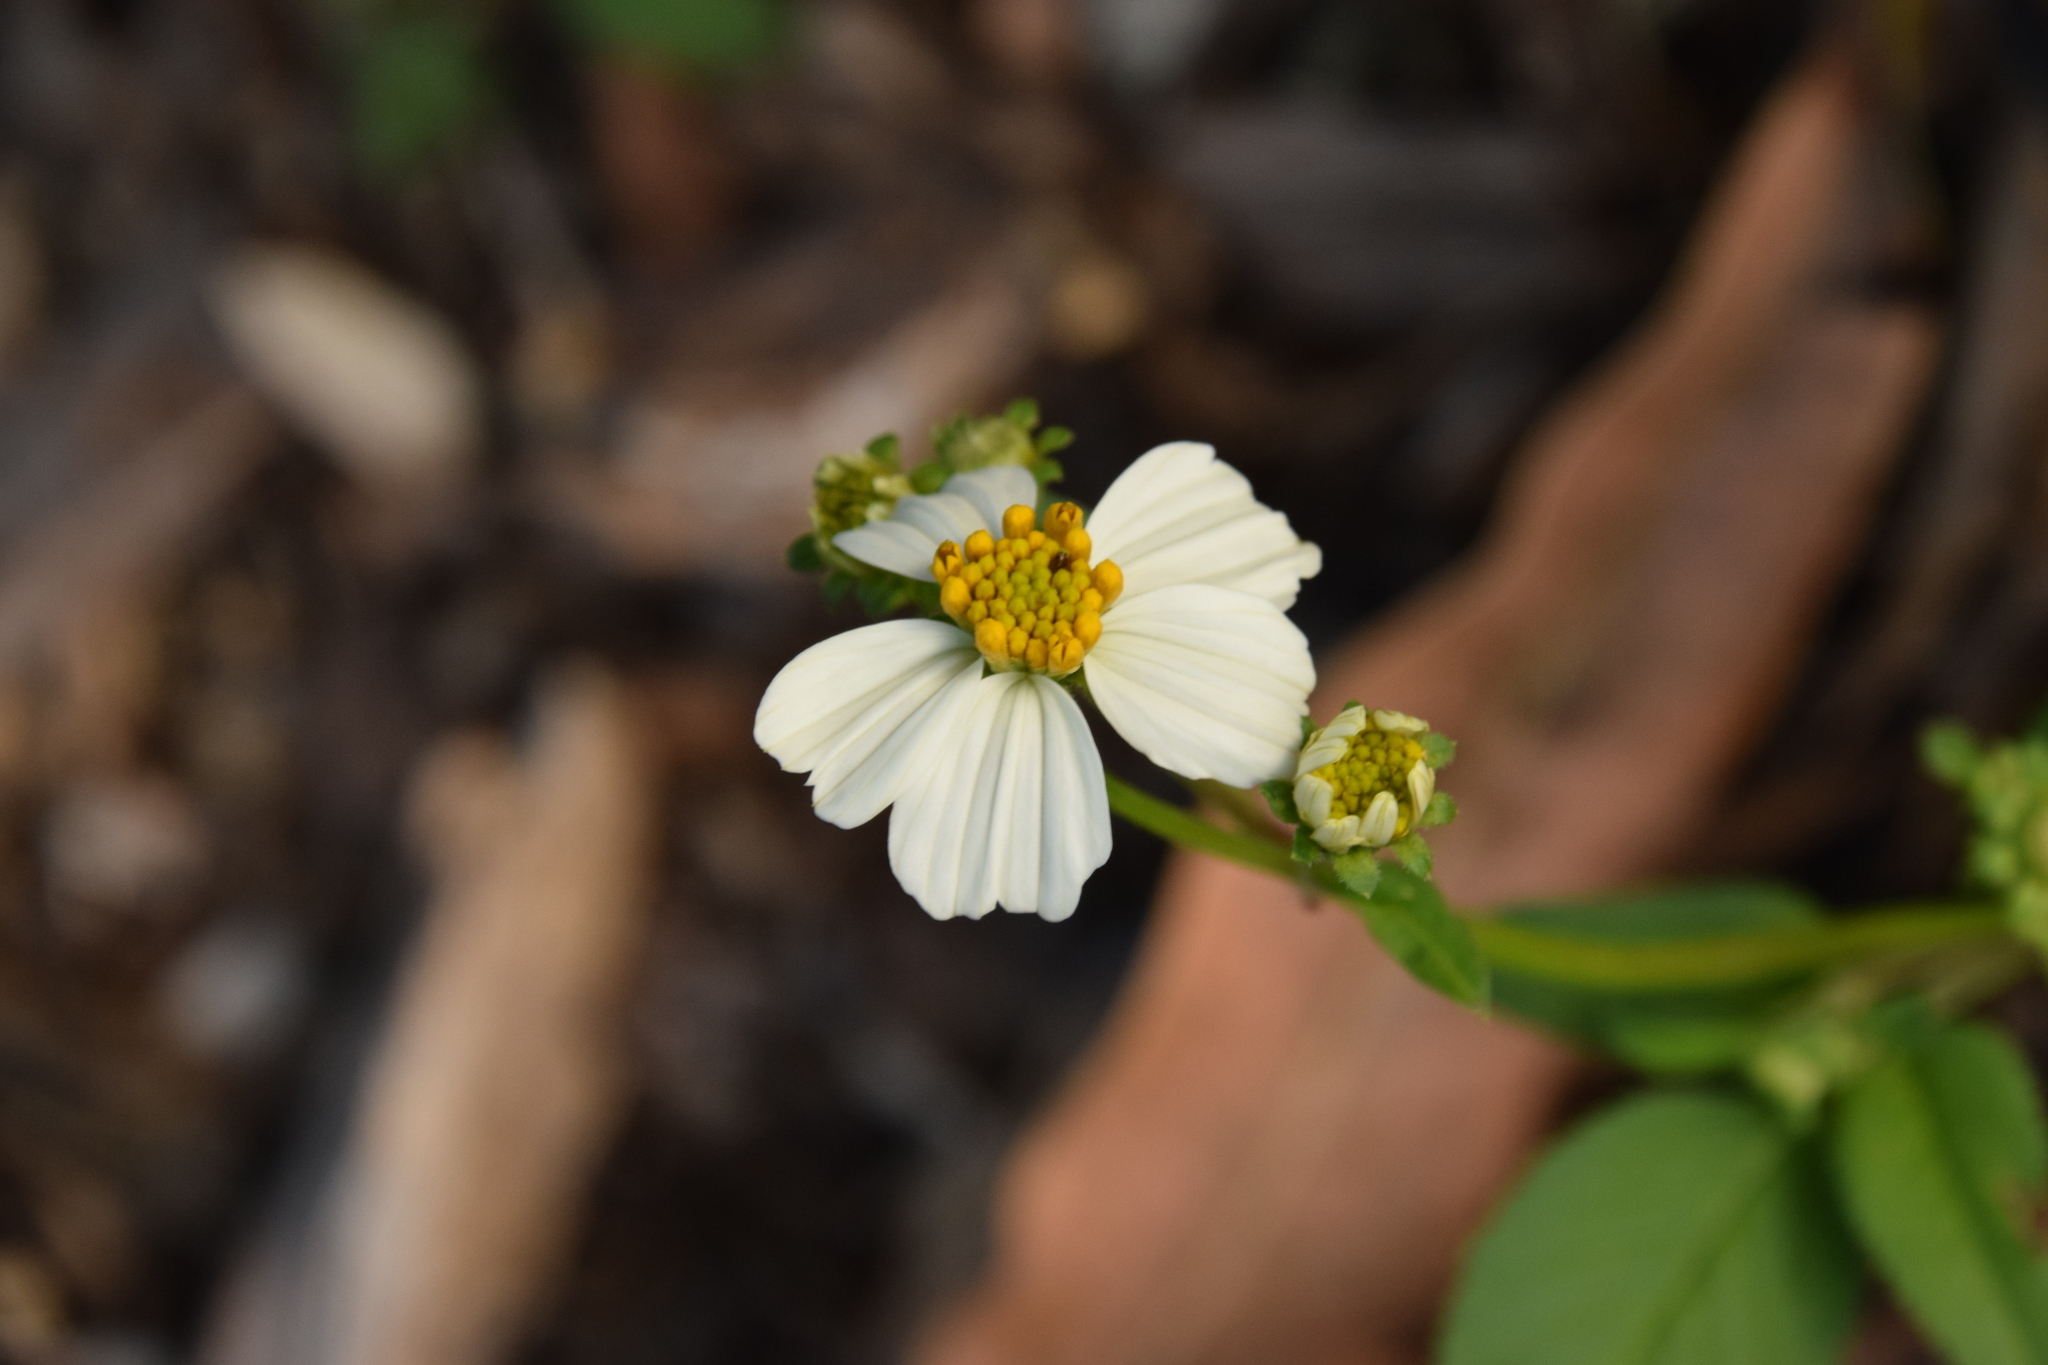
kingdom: Plantae
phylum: Tracheophyta
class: Magnoliopsida
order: Asterales
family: Asteraceae
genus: Bidens
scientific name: Bidens alba
